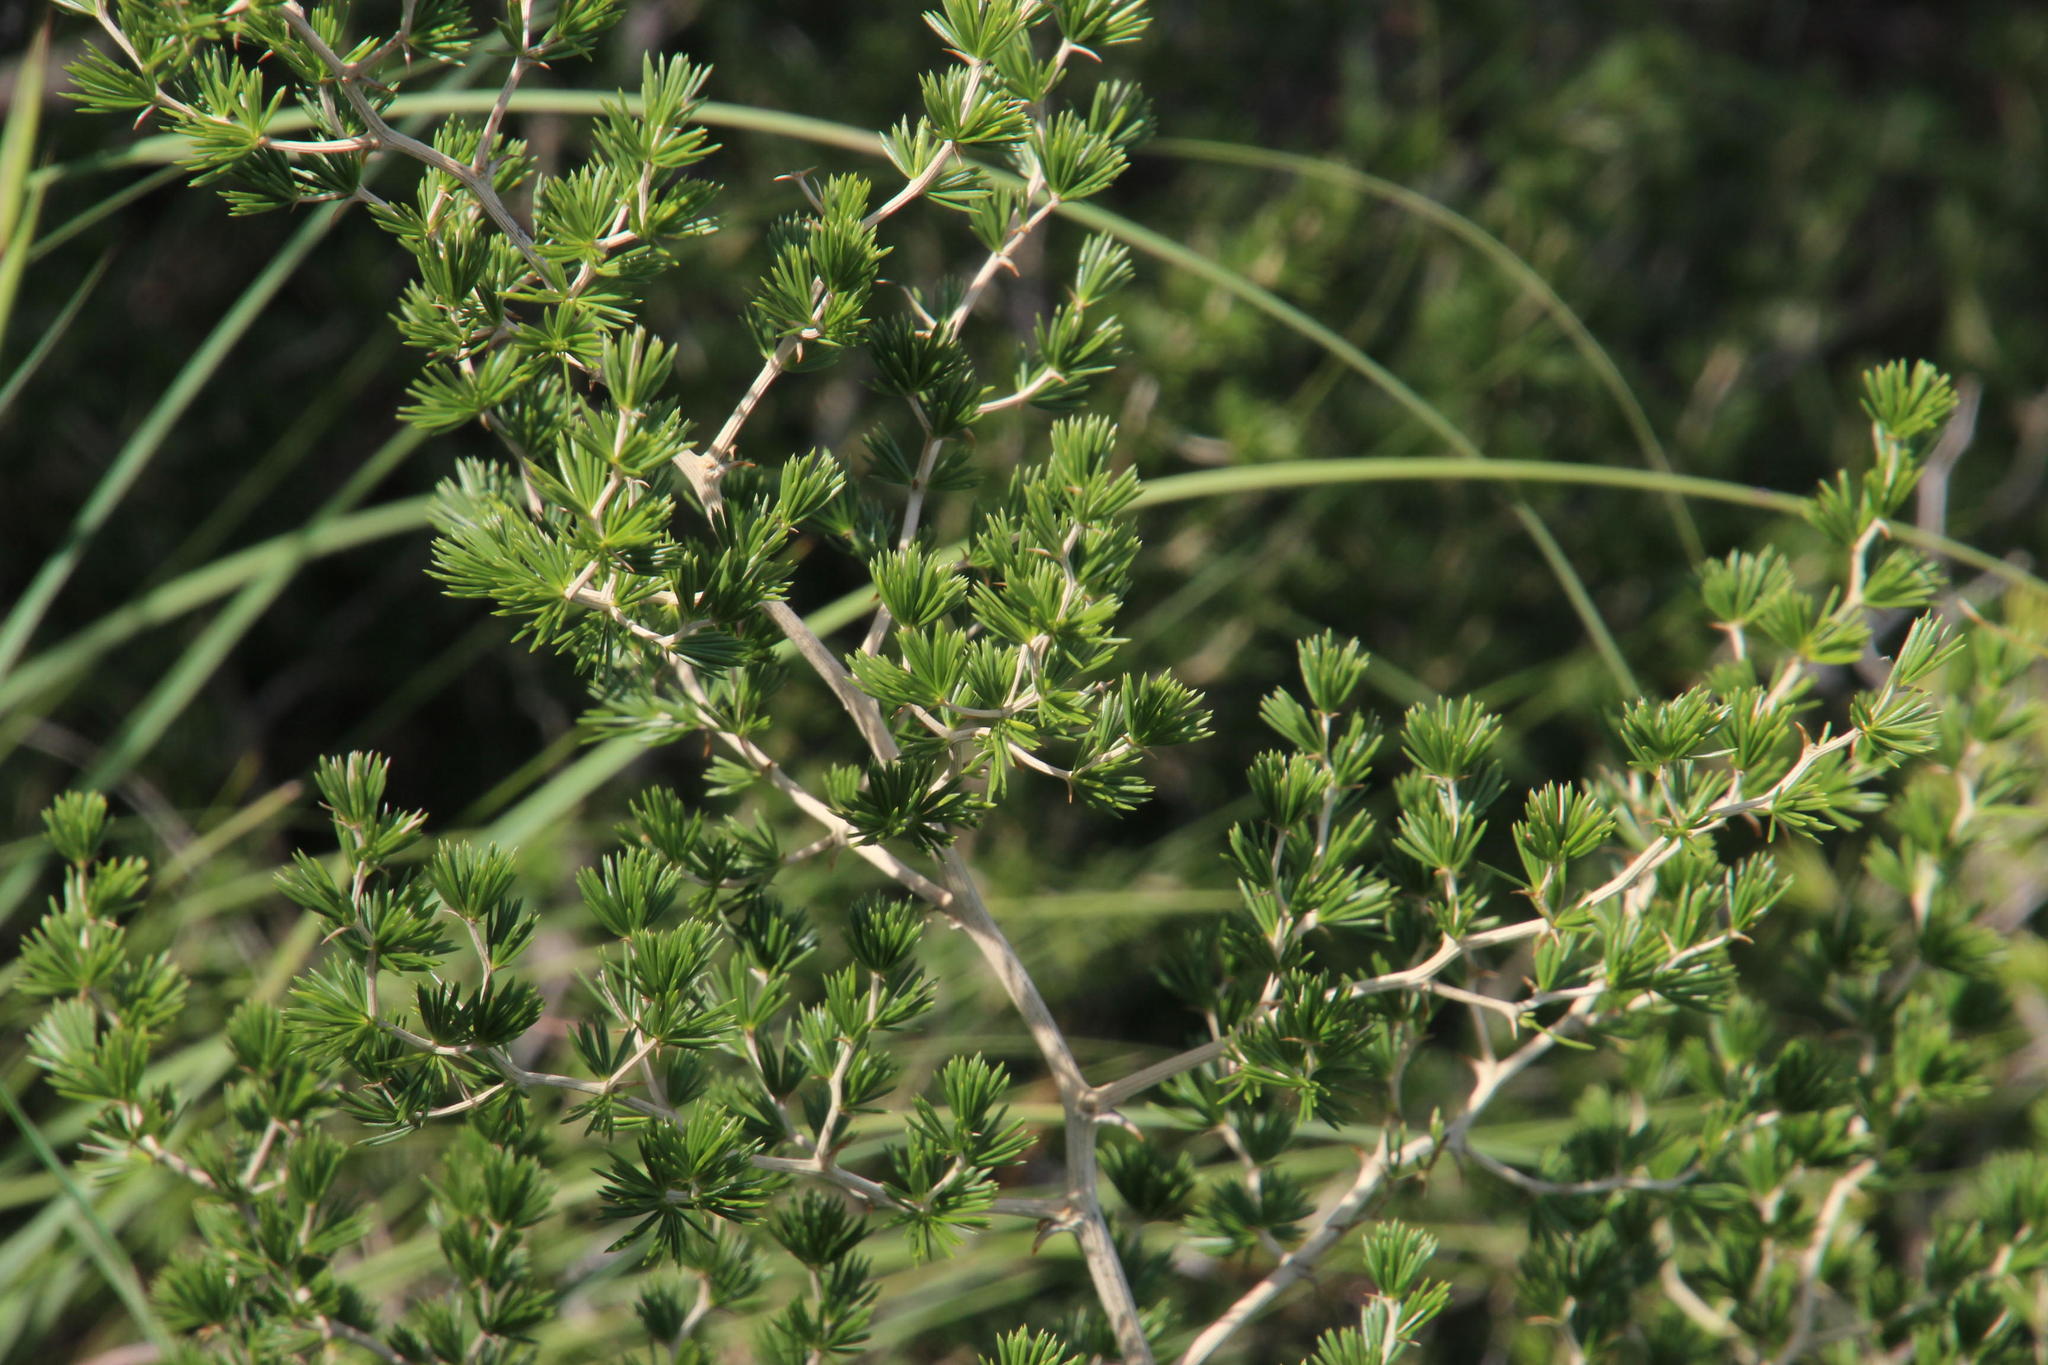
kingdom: Plantae
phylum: Tracheophyta
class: Liliopsida
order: Asparagales
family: Asparagaceae
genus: Asparagus
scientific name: Asparagus laricinus
